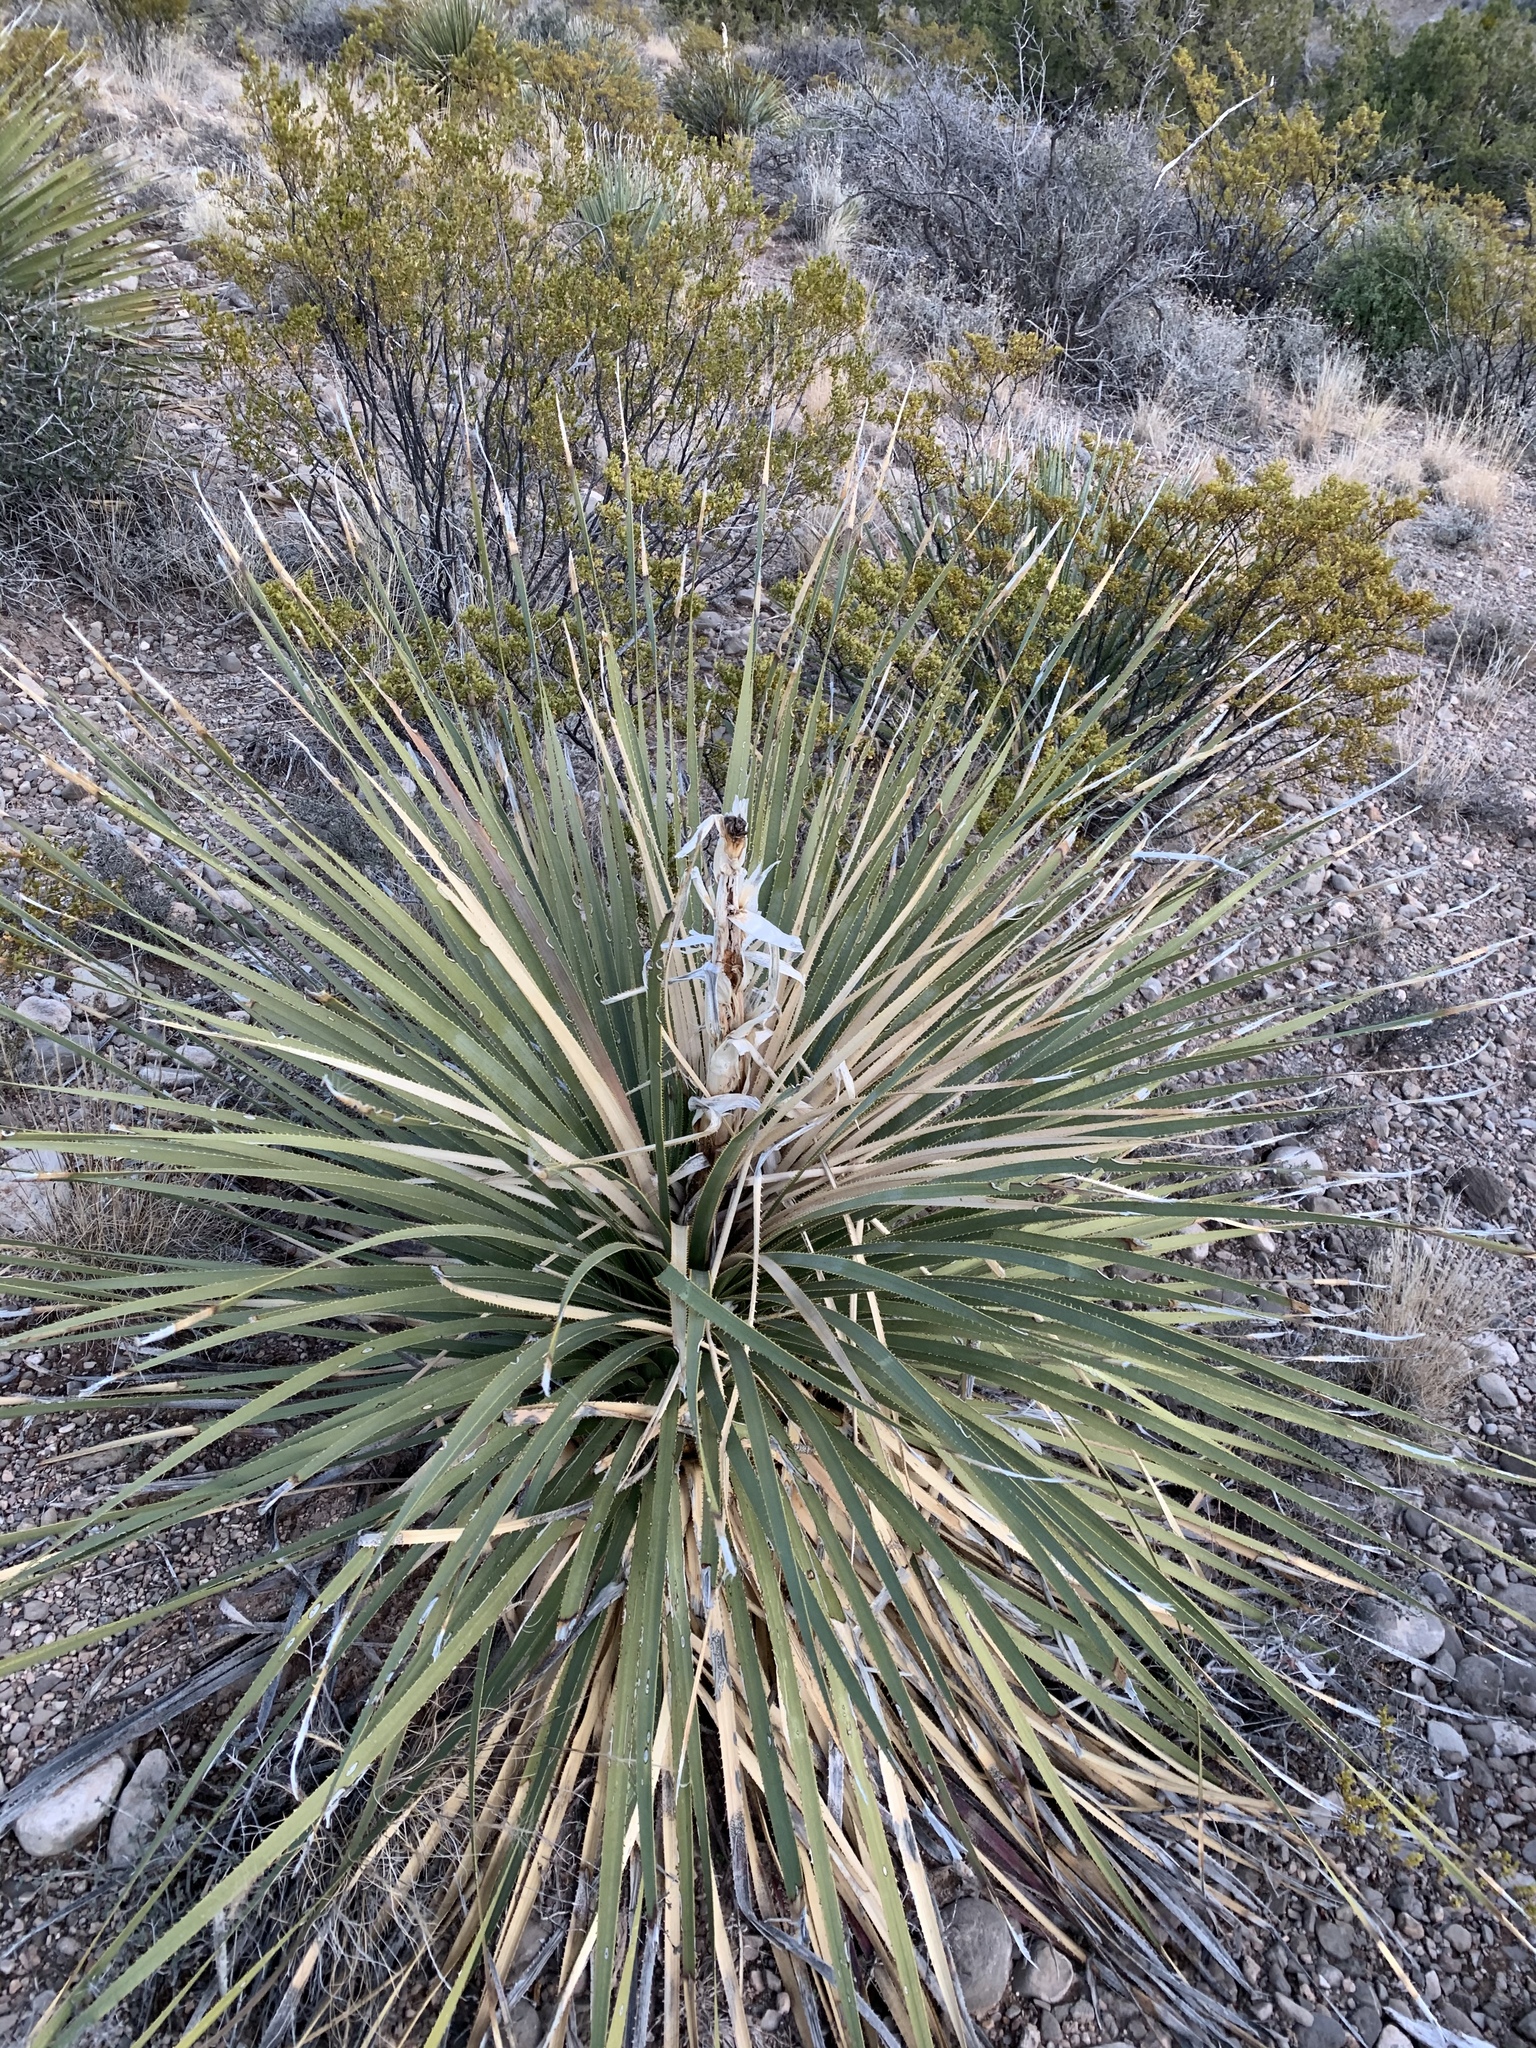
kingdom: Plantae
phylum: Tracheophyta
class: Liliopsida
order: Asparagales
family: Asparagaceae
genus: Dasylirion
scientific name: Dasylirion wheeleri
